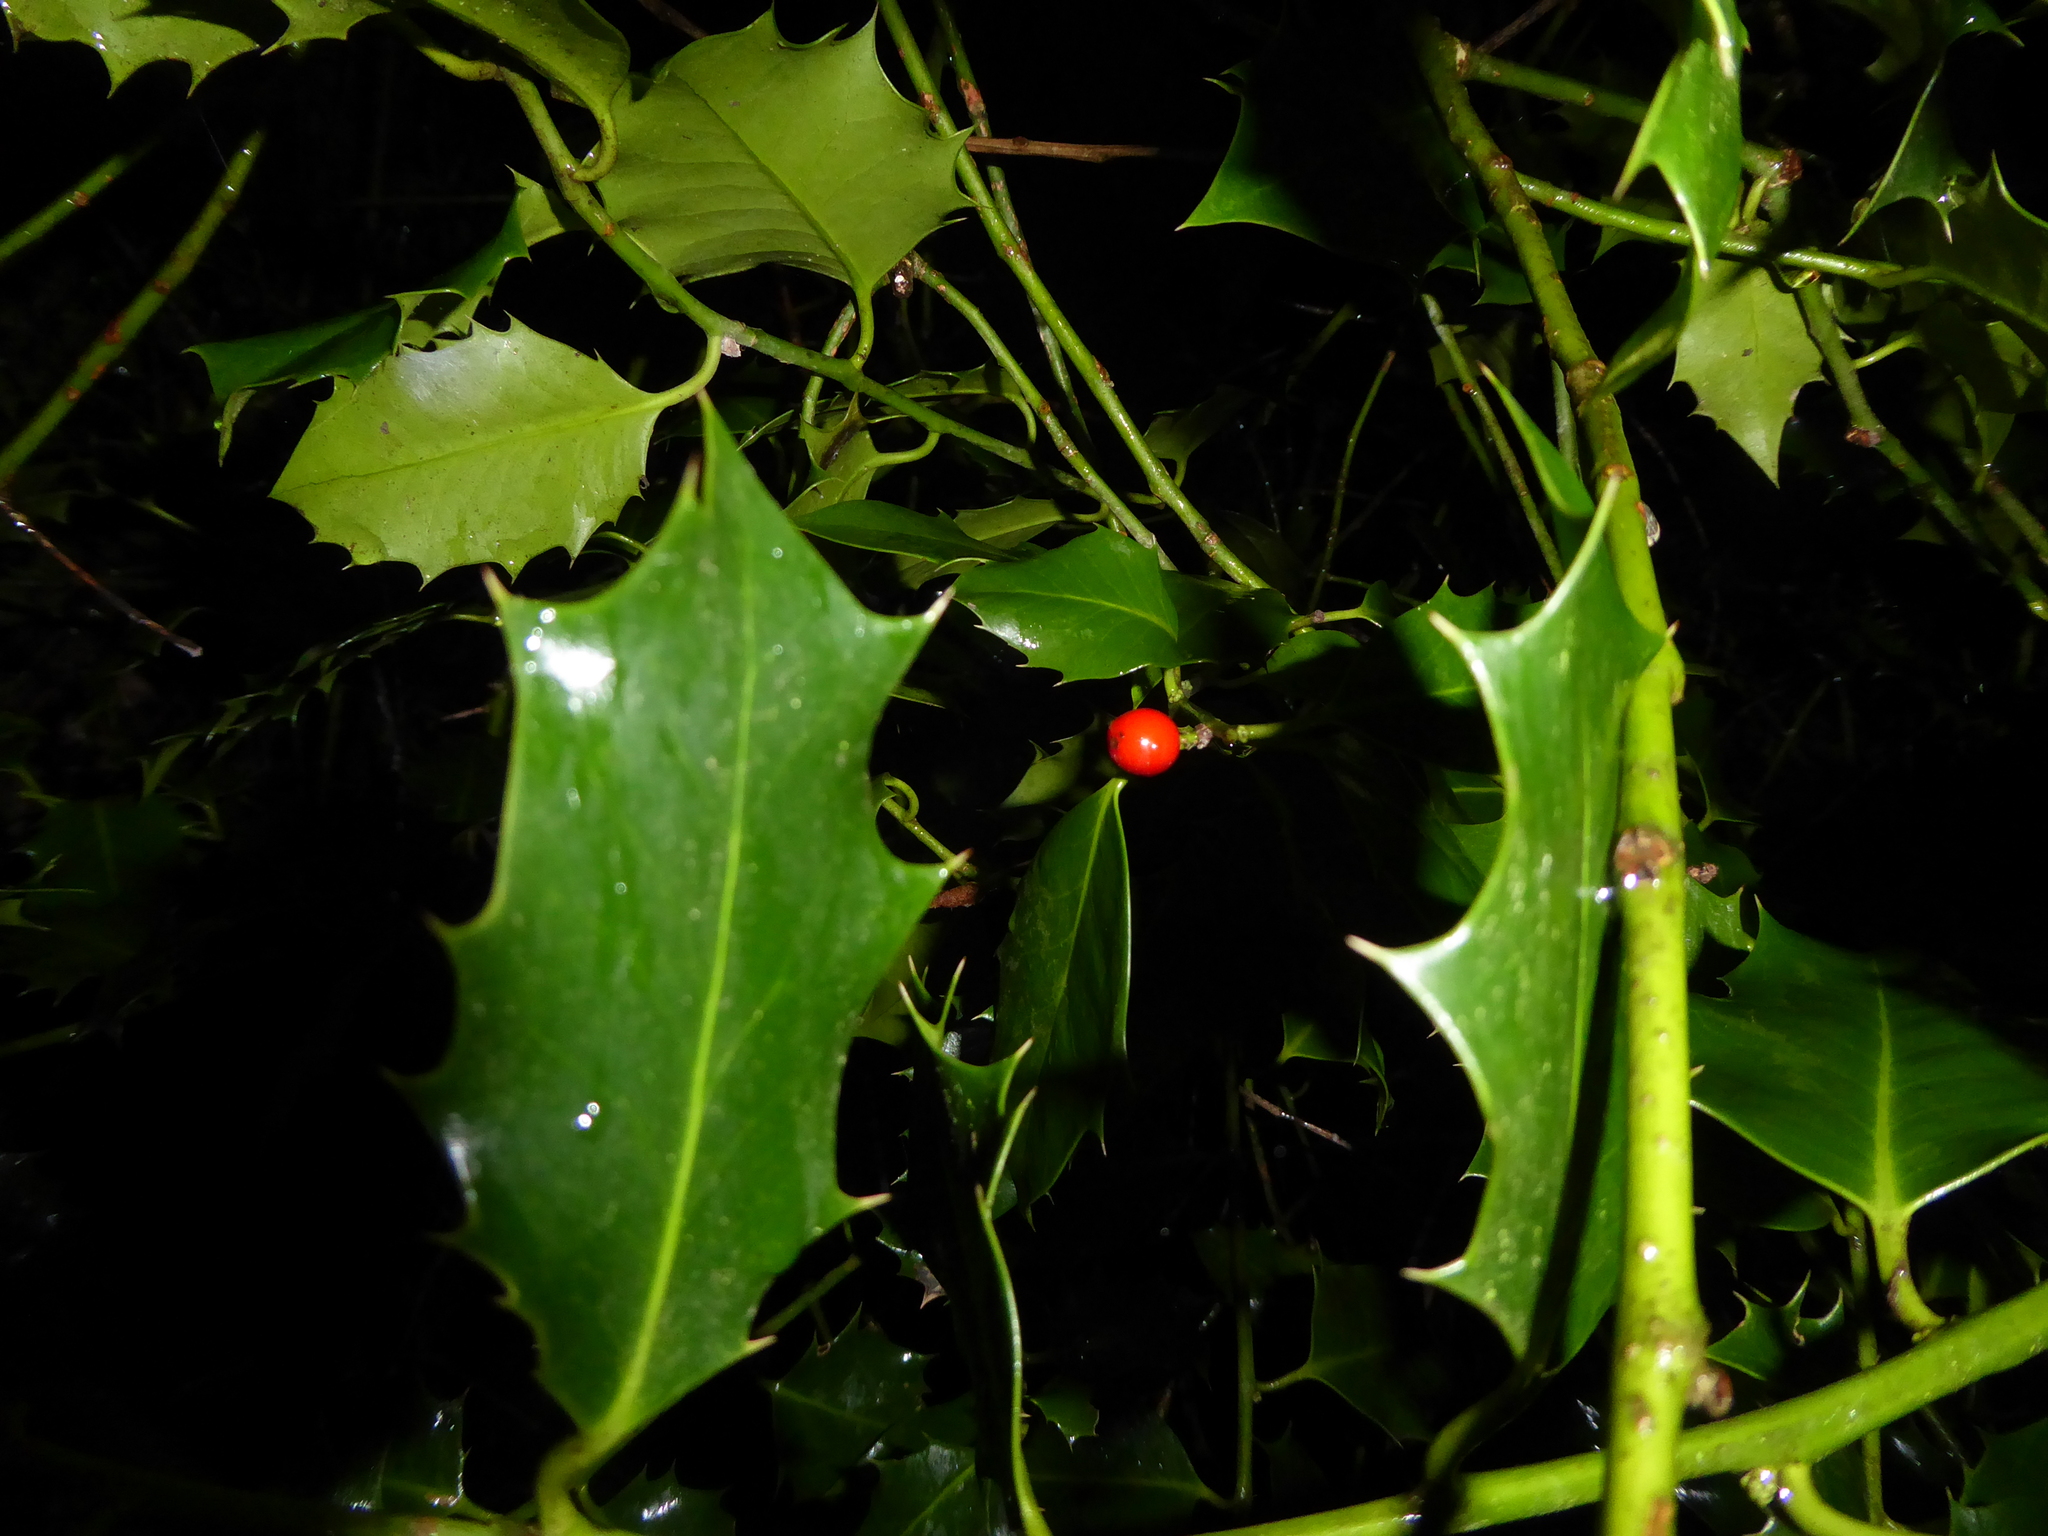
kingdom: Plantae
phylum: Tracheophyta
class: Magnoliopsida
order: Aquifoliales
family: Aquifoliaceae
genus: Ilex
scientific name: Ilex aquifolium
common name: English holly
